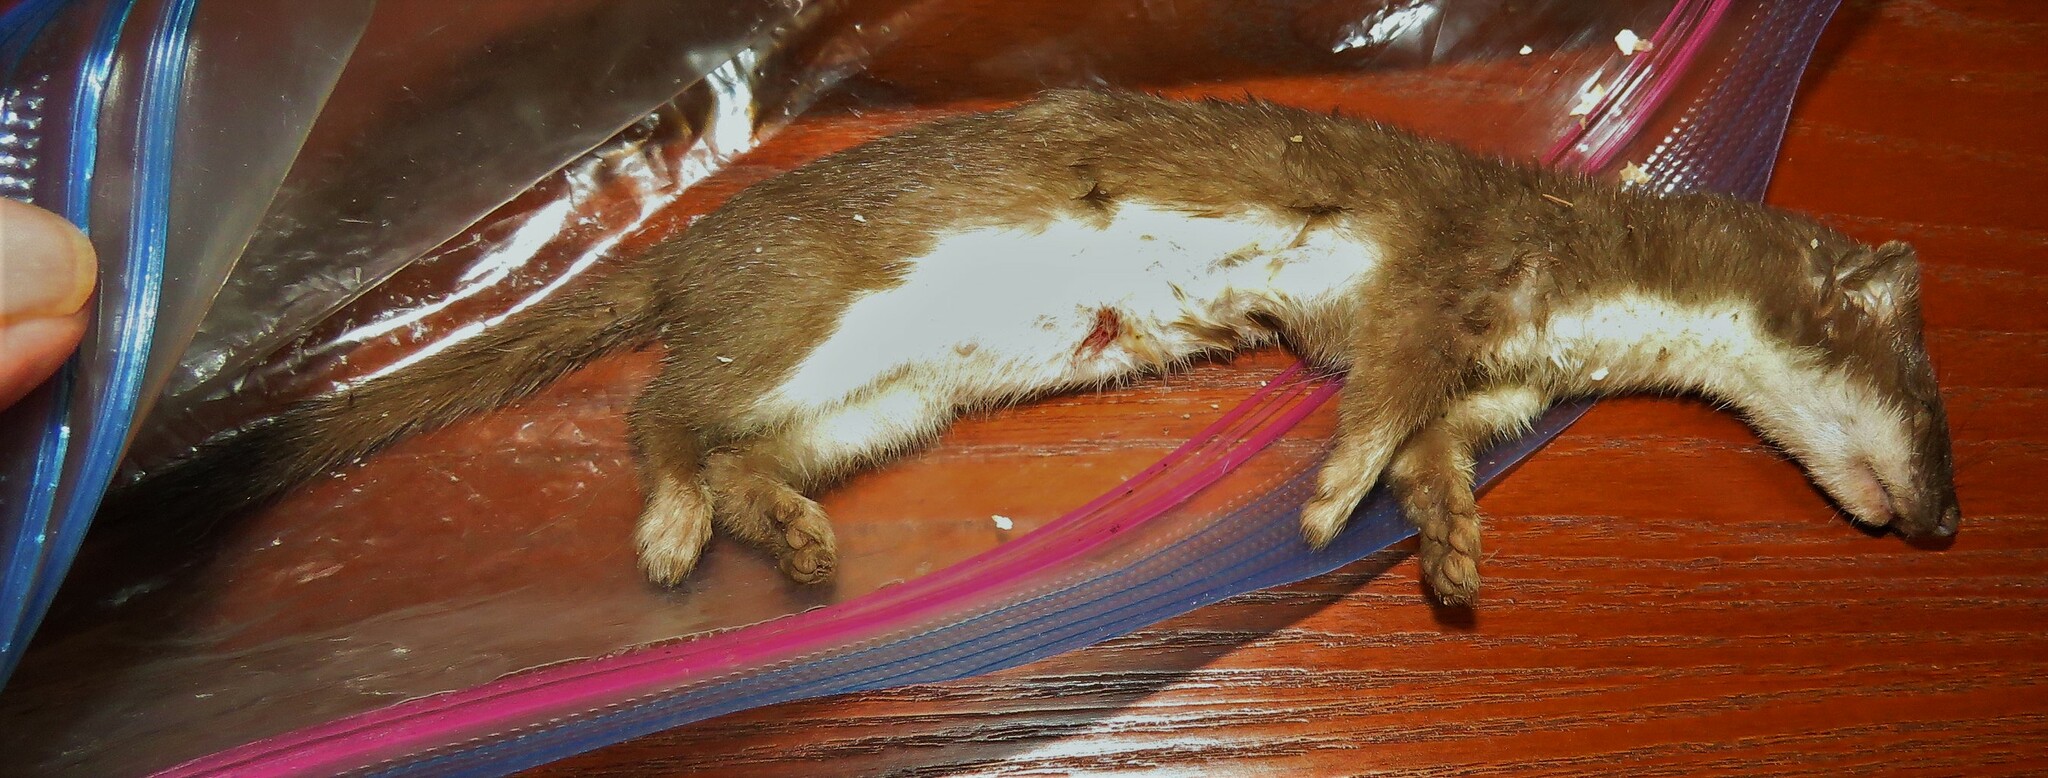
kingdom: Animalia
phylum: Chordata
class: Mammalia
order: Carnivora
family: Mustelidae
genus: Mustela
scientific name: Mustela erminea
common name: Stoat
